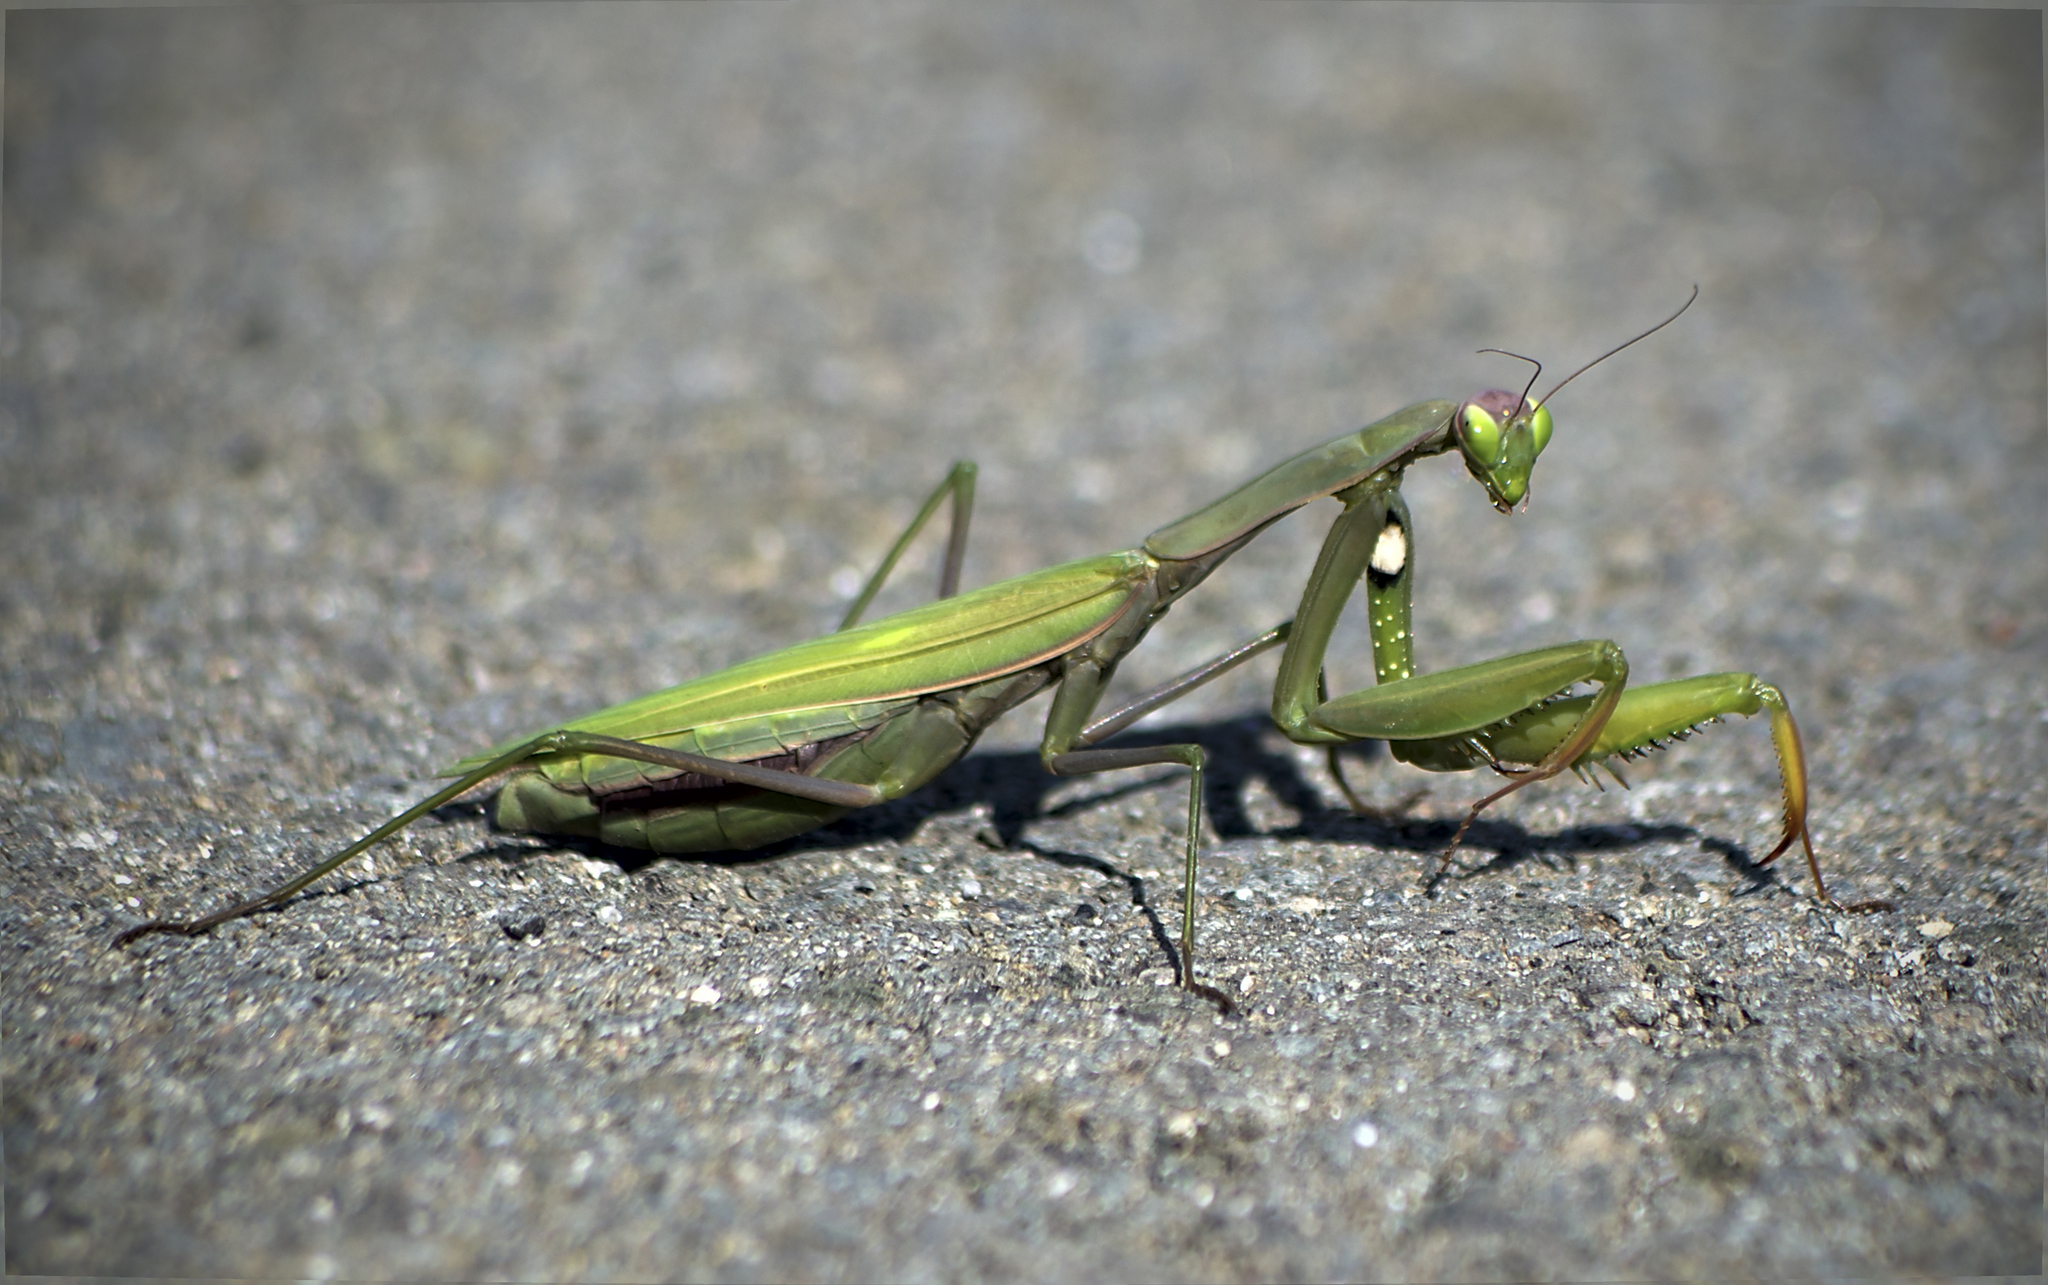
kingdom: Animalia
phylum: Arthropoda
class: Insecta
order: Mantodea
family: Mantidae
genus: Mantis
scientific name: Mantis religiosa
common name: Praying mantis
